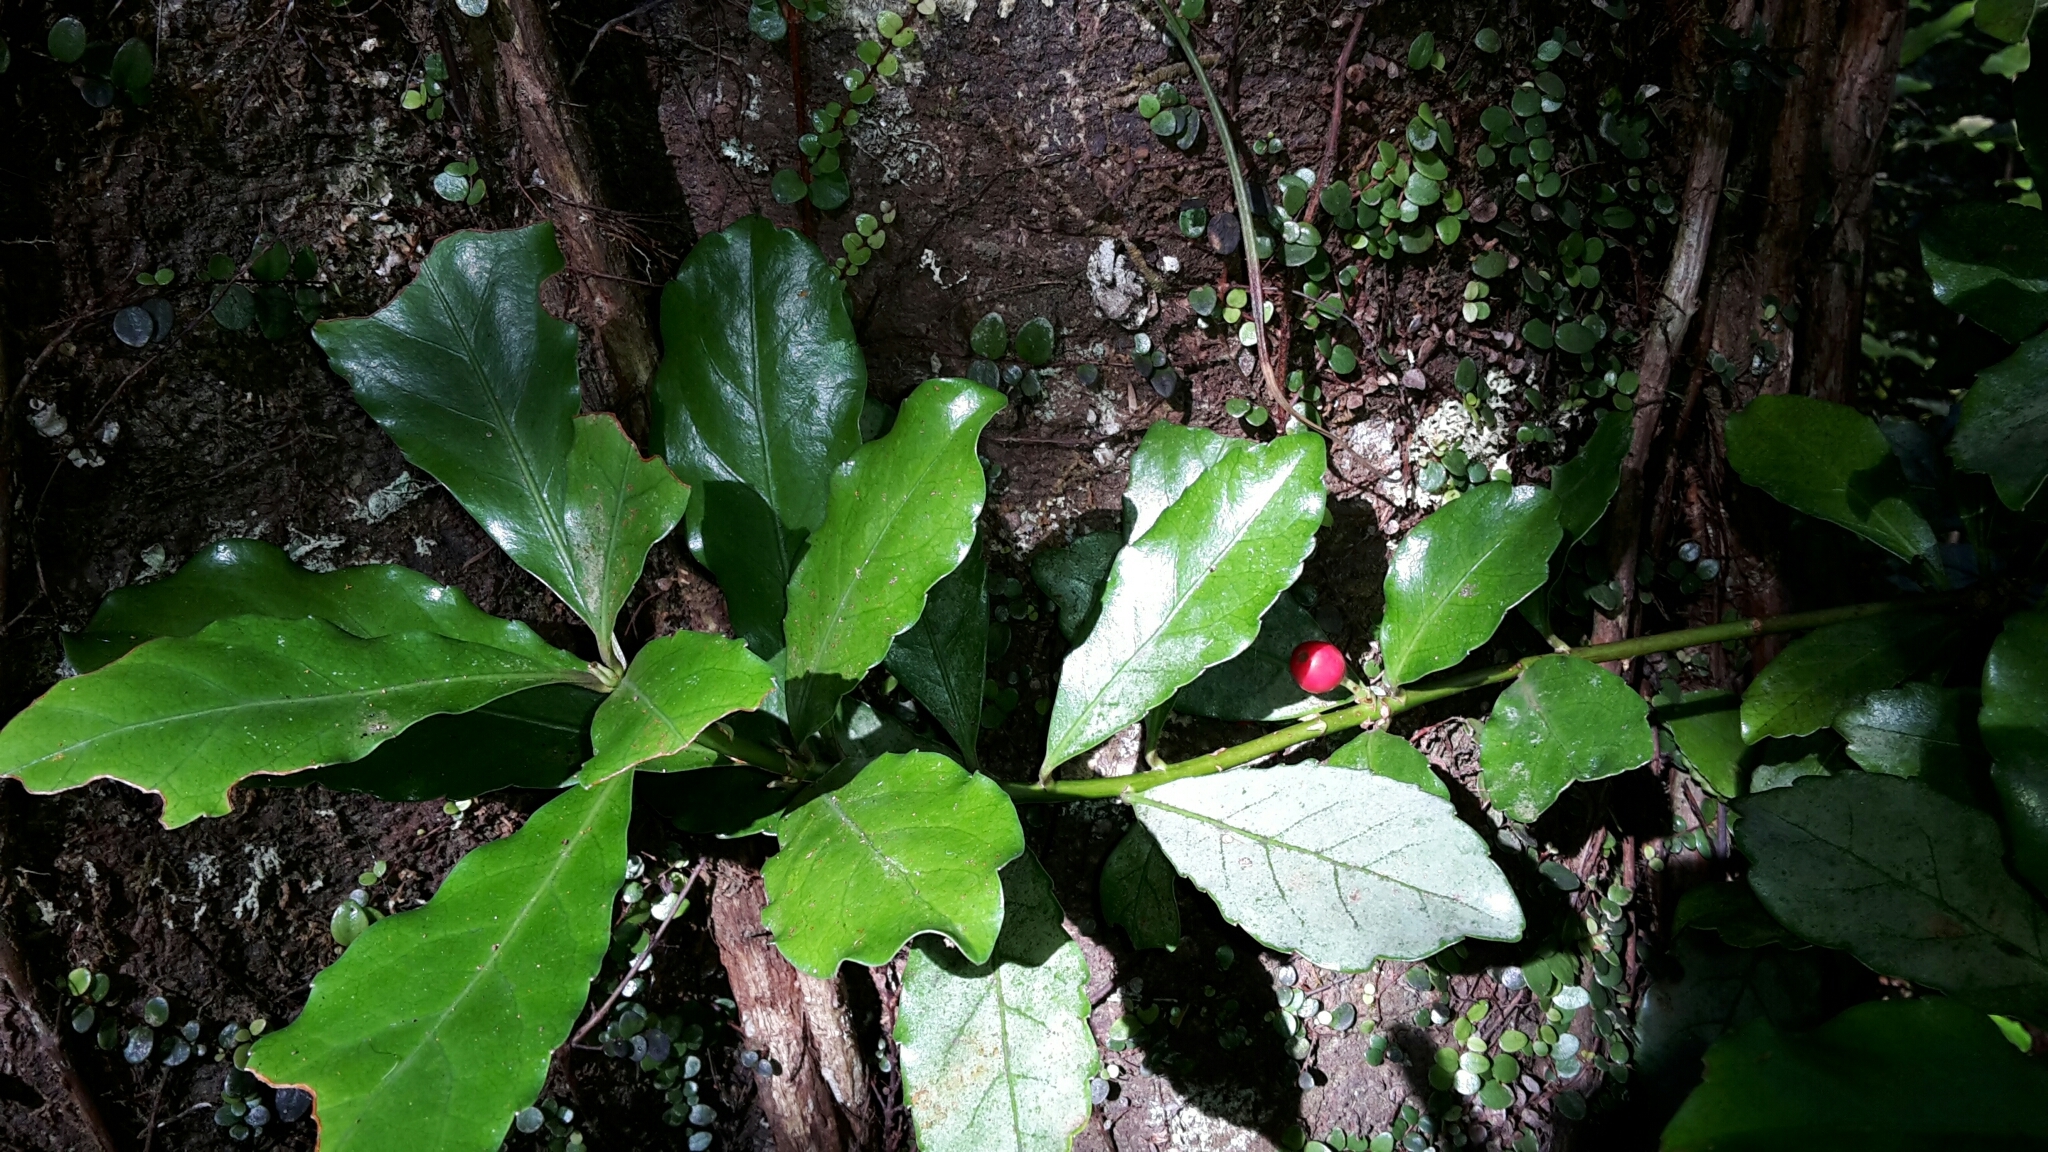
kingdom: Plantae
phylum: Tracheophyta
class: Magnoliopsida
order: Asterales
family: Alseuosmiaceae
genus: Alseuosmia
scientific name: Alseuosmia macrophylla
